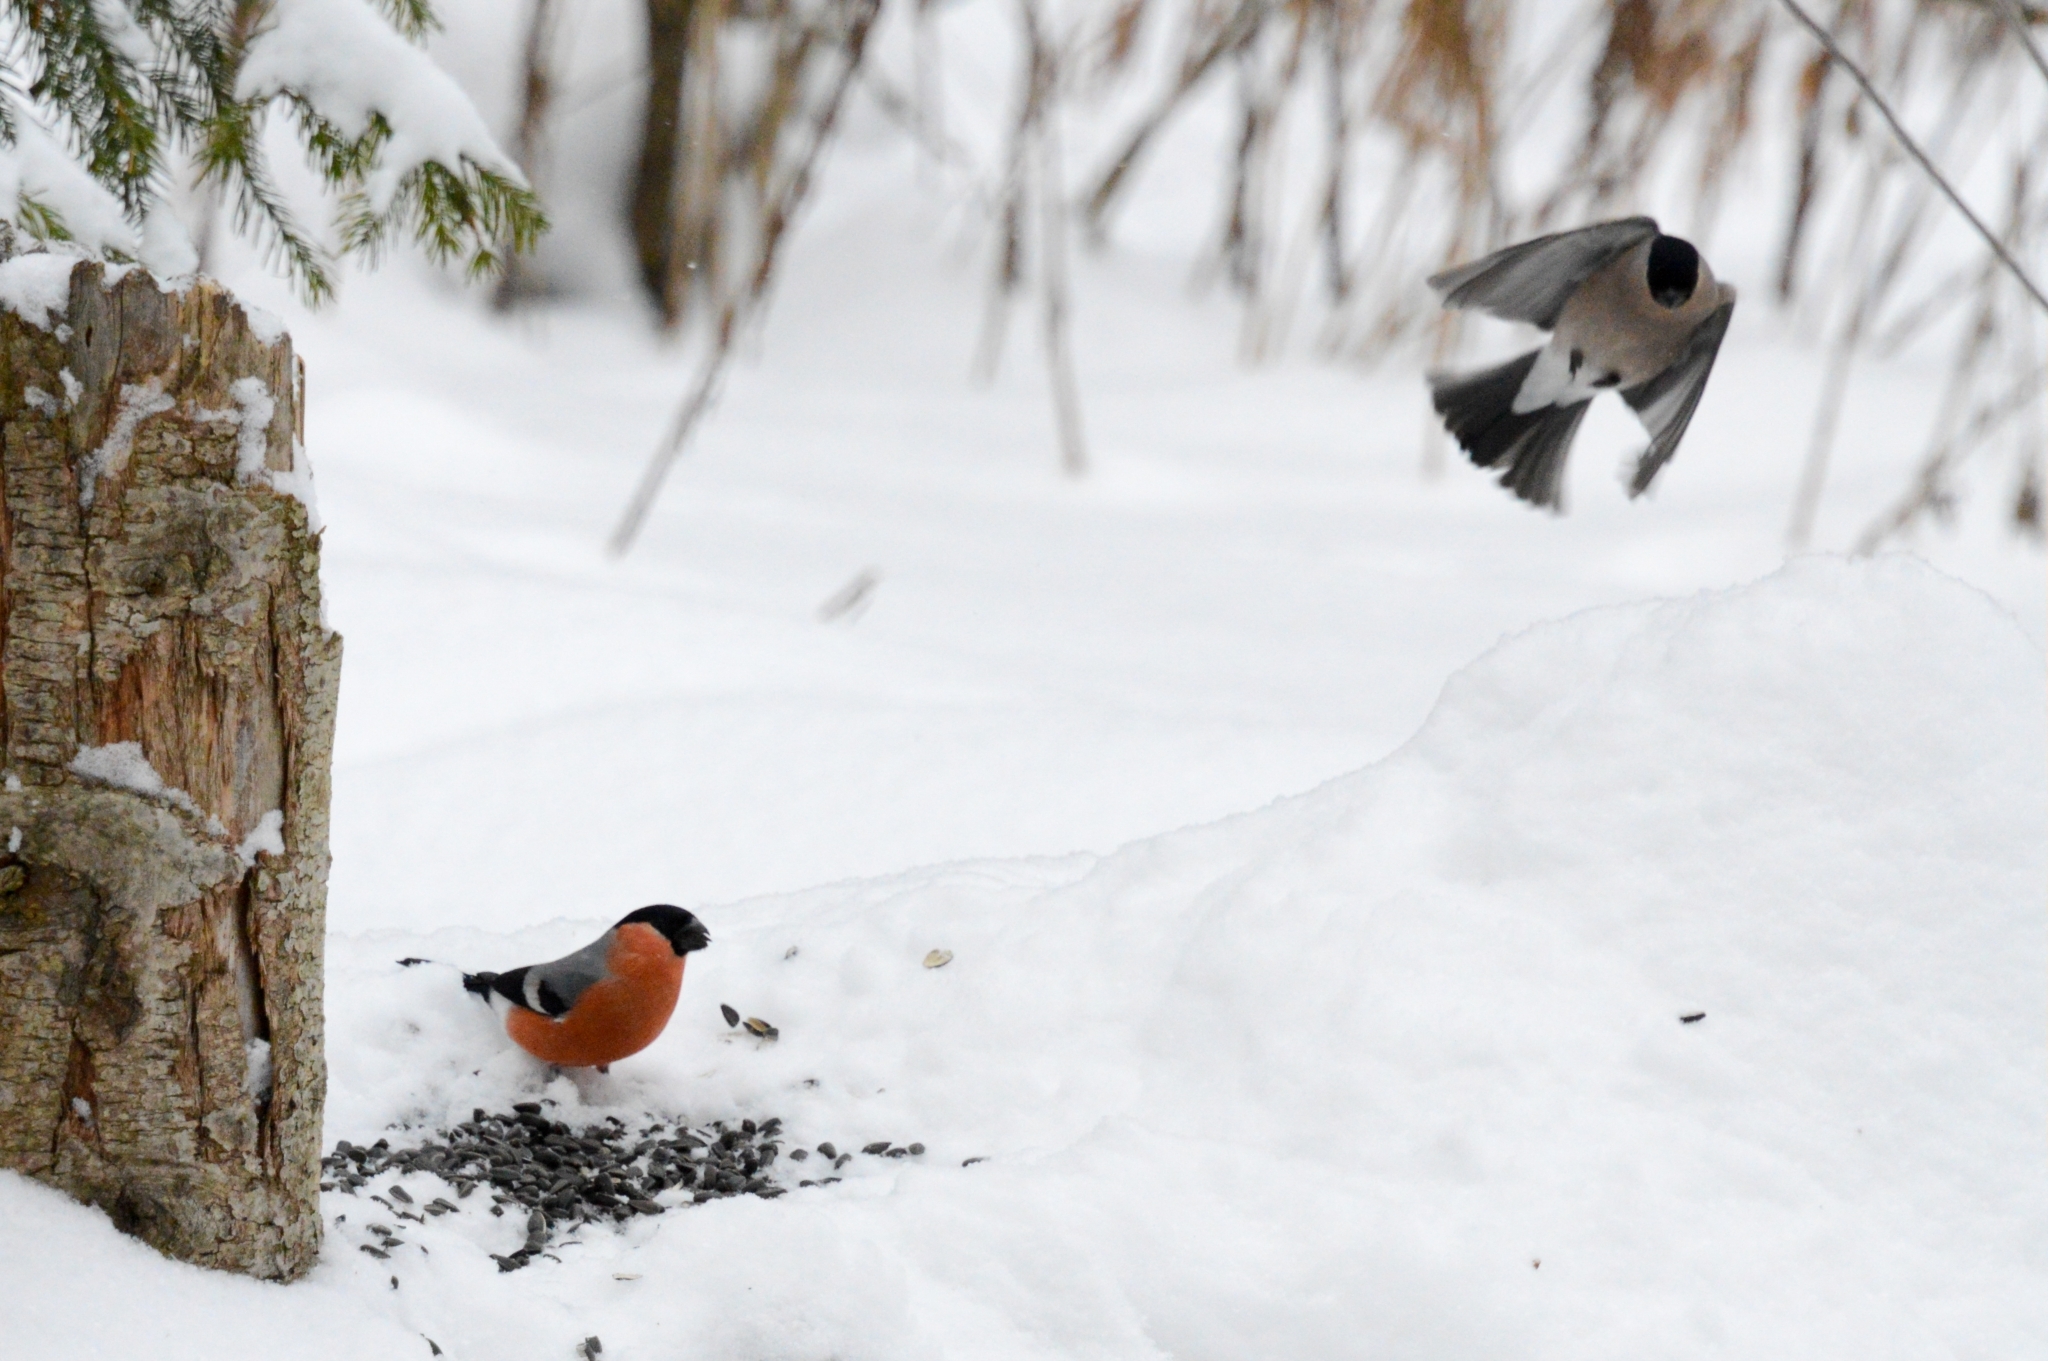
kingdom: Animalia
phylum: Chordata
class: Aves
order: Passeriformes
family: Fringillidae
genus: Pyrrhula
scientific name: Pyrrhula pyrrhula
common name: Eurasian bullfinch
